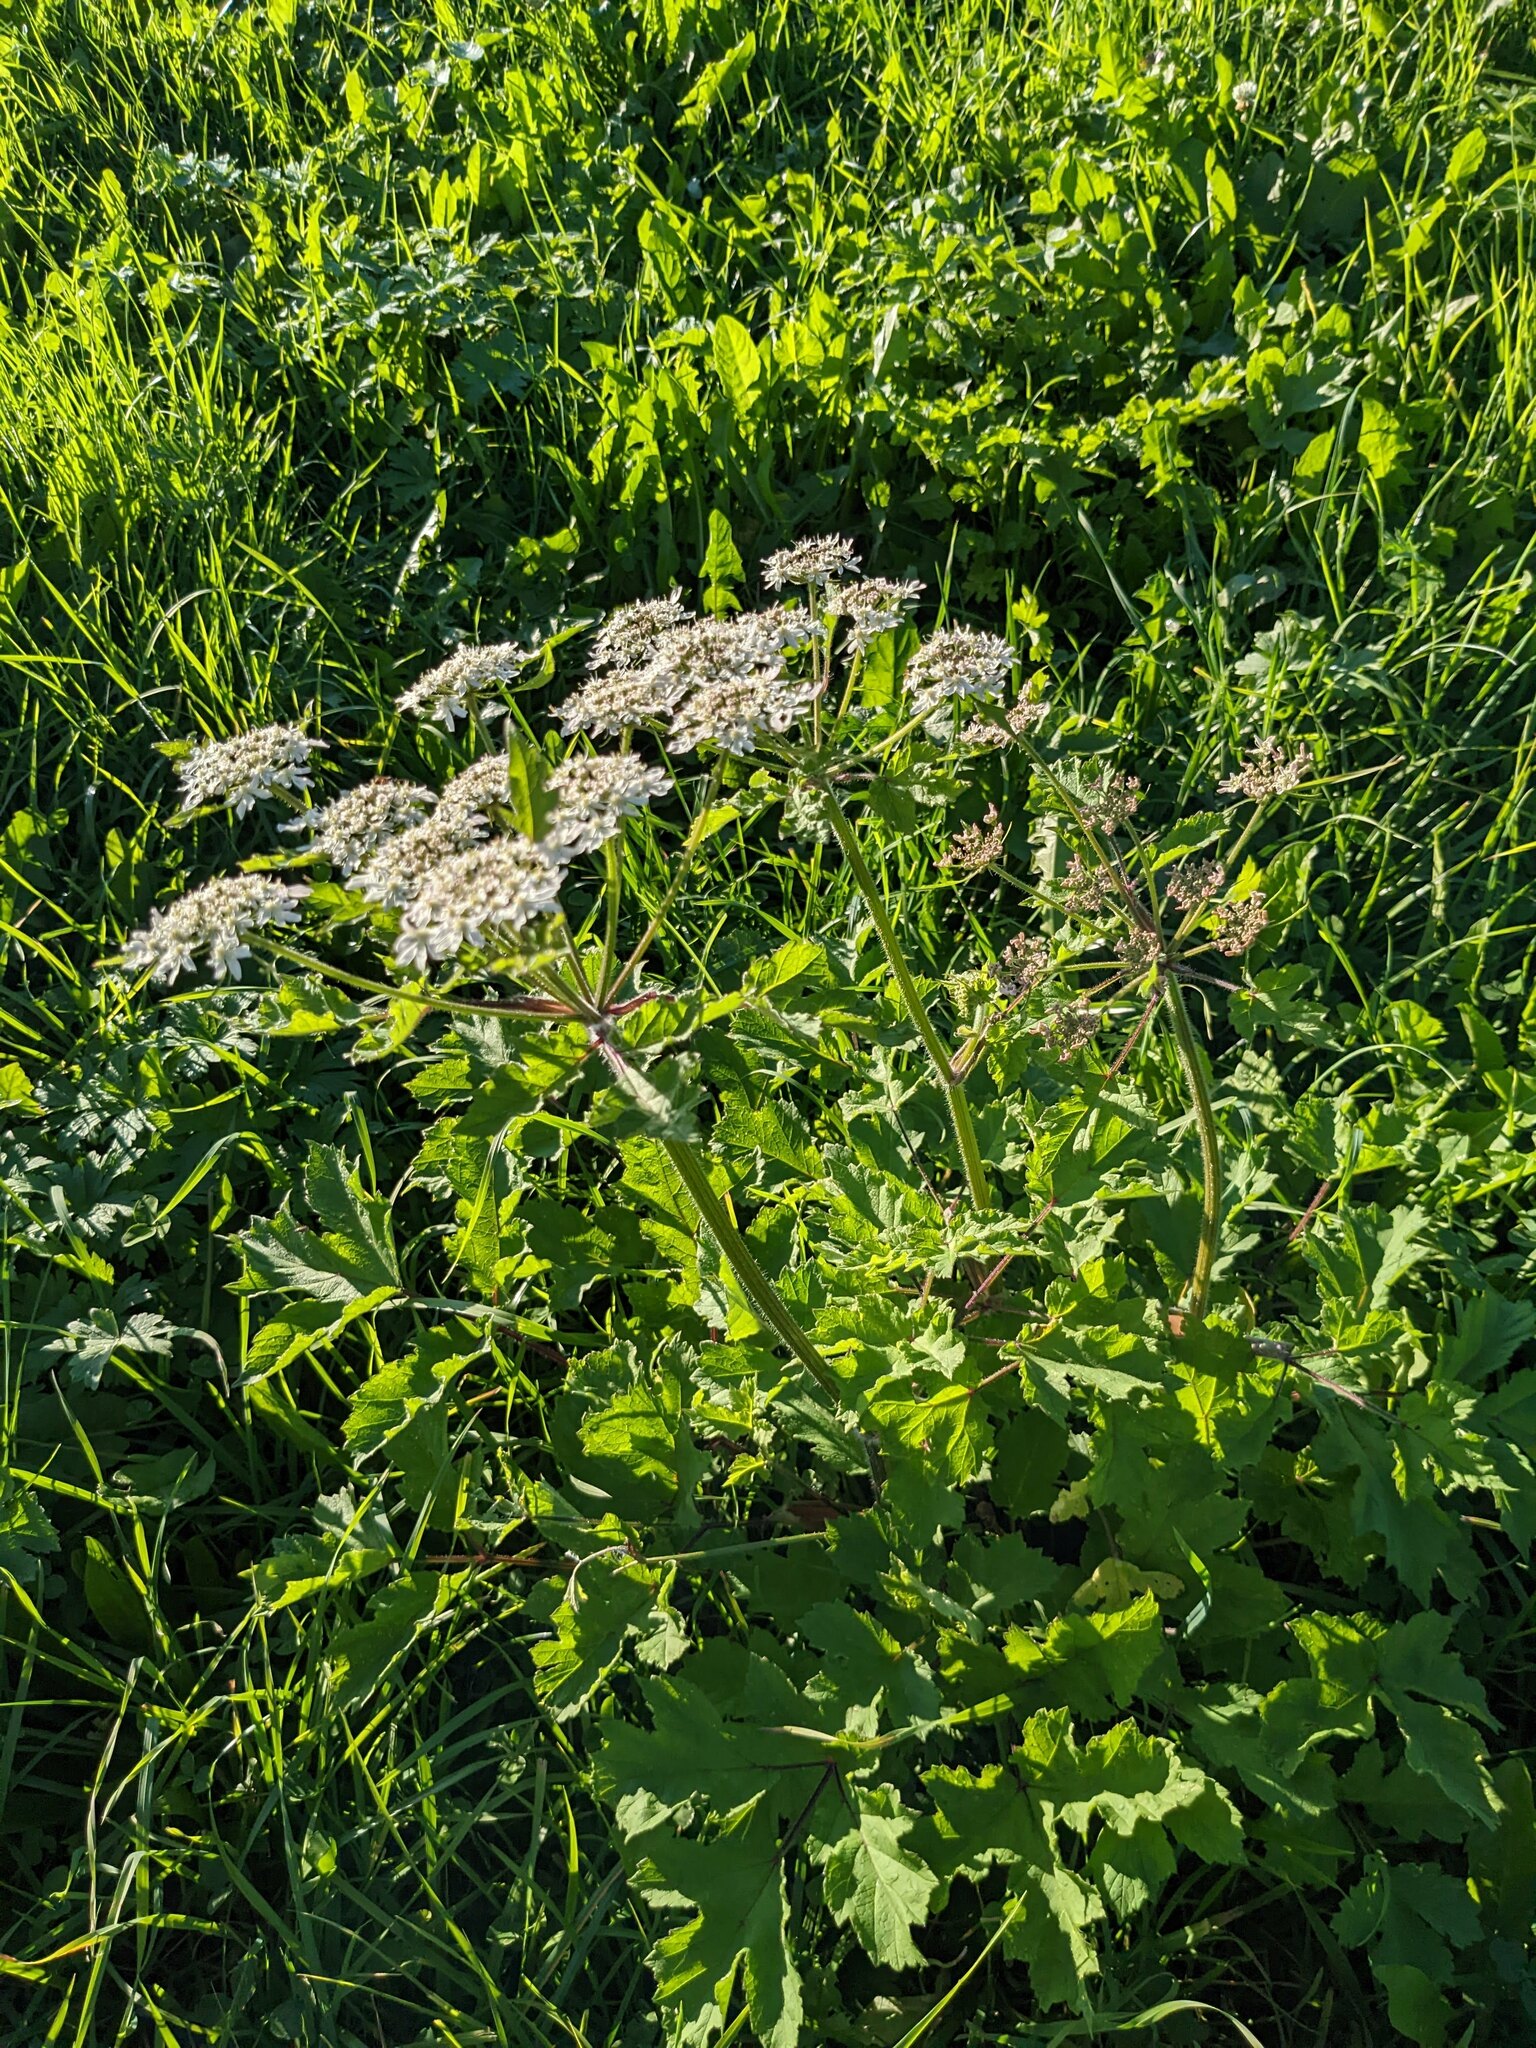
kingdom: Plantae
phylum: Tracheophyta
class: Magnoliopsida
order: Apiales
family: Apiaceae
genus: Heracleum
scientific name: Heracleum sphondylium
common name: Hogweed
